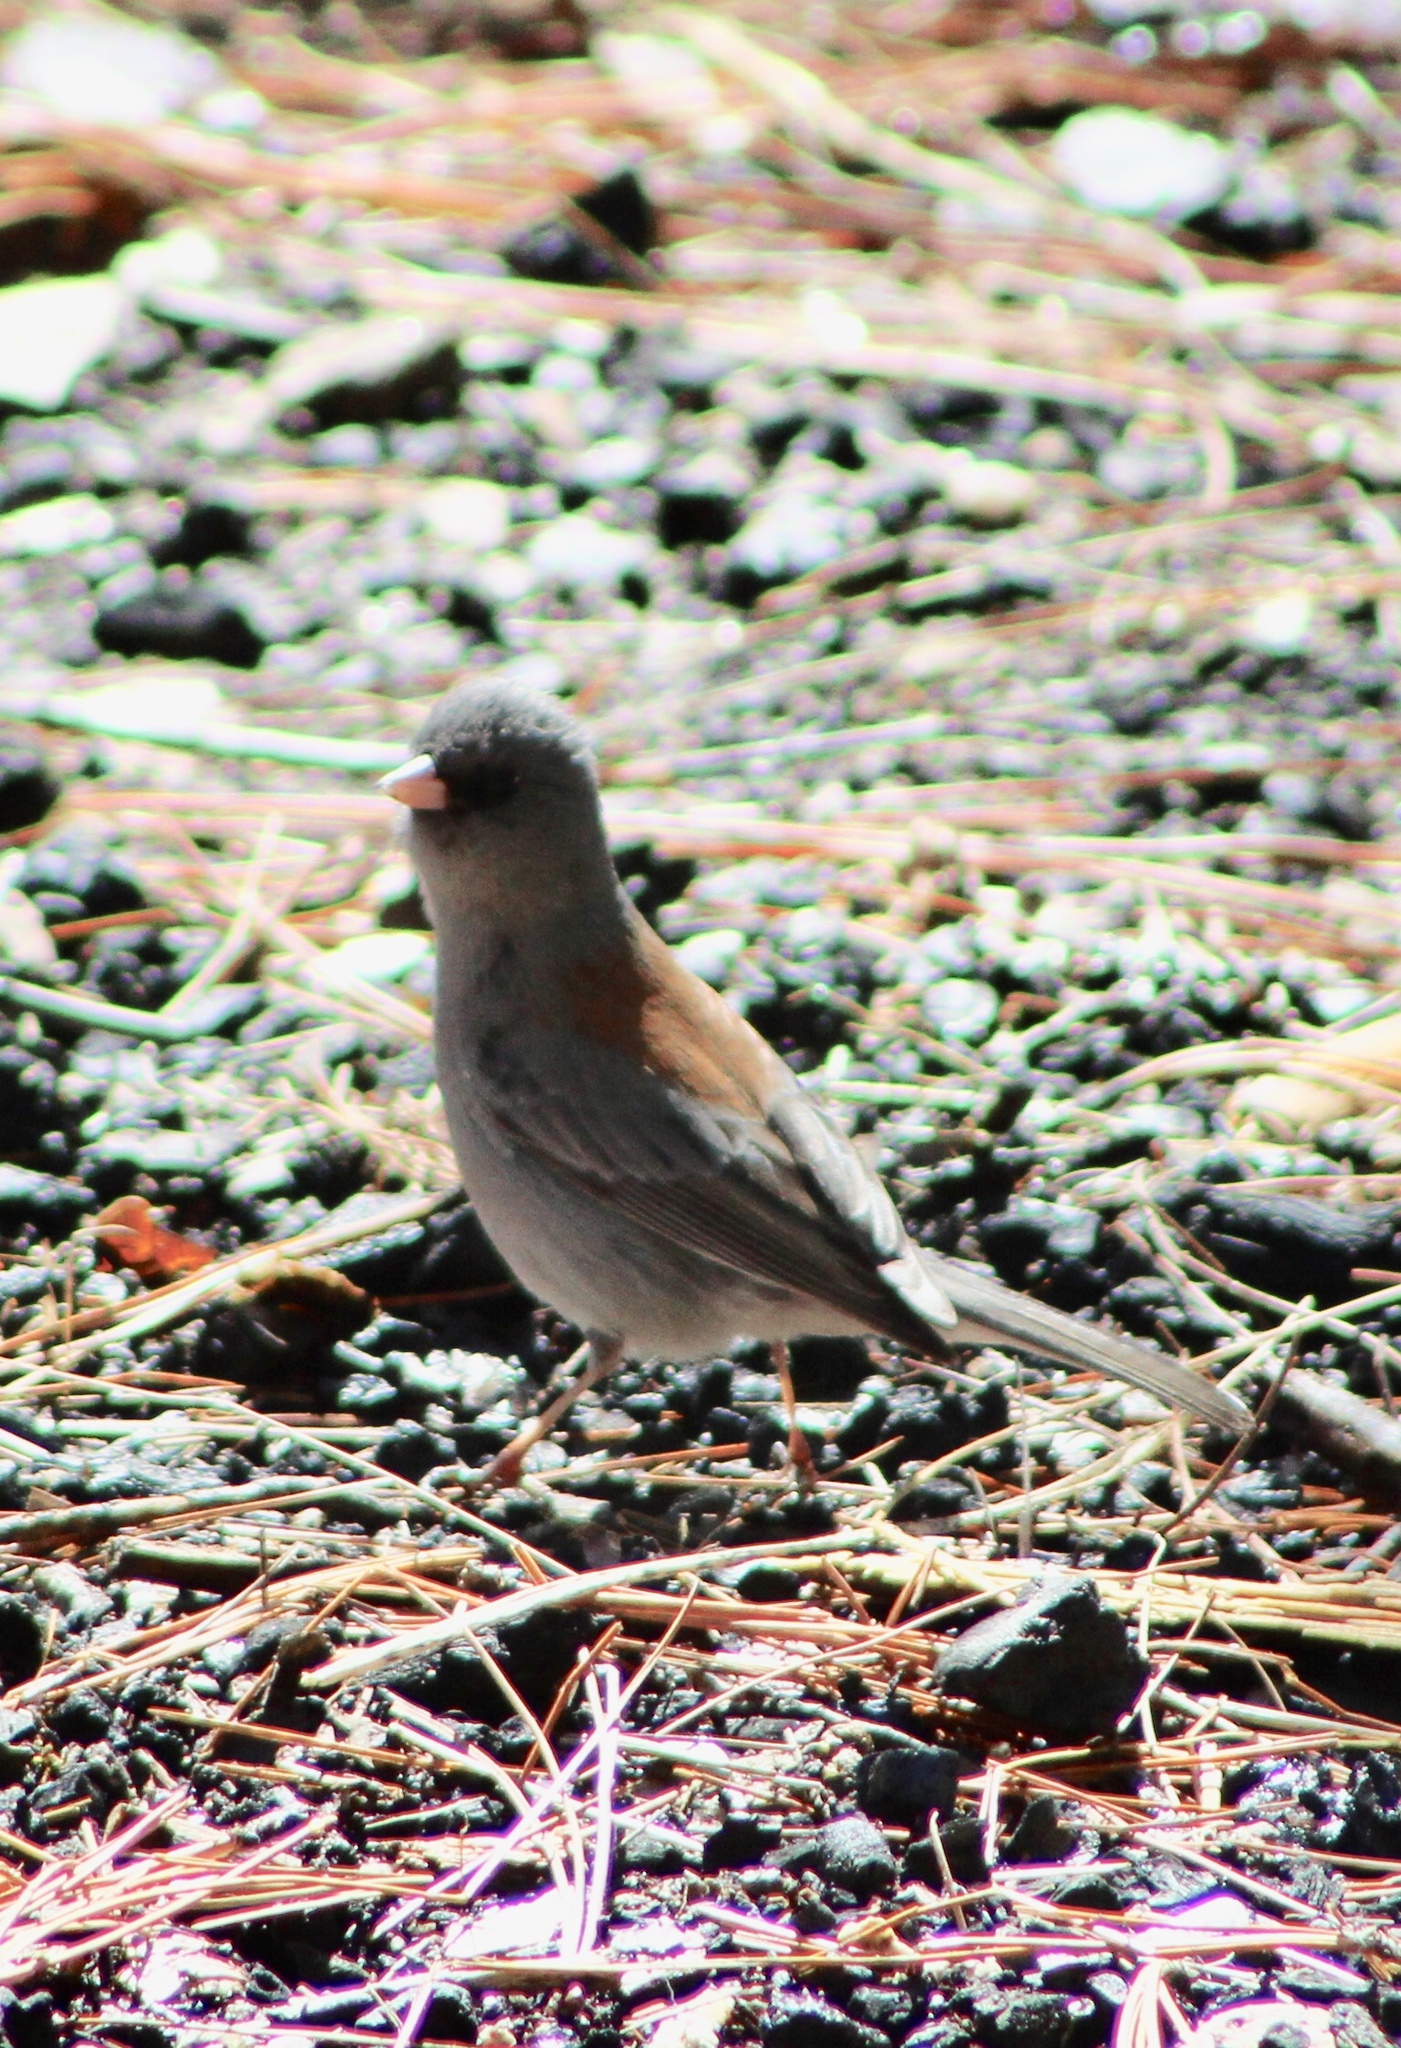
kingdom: Animalia
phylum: Chordata
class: Aves
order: Passeriformes
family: Passerellidae
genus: Junco
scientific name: Junco hyemalis
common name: Dark-eyed junco
